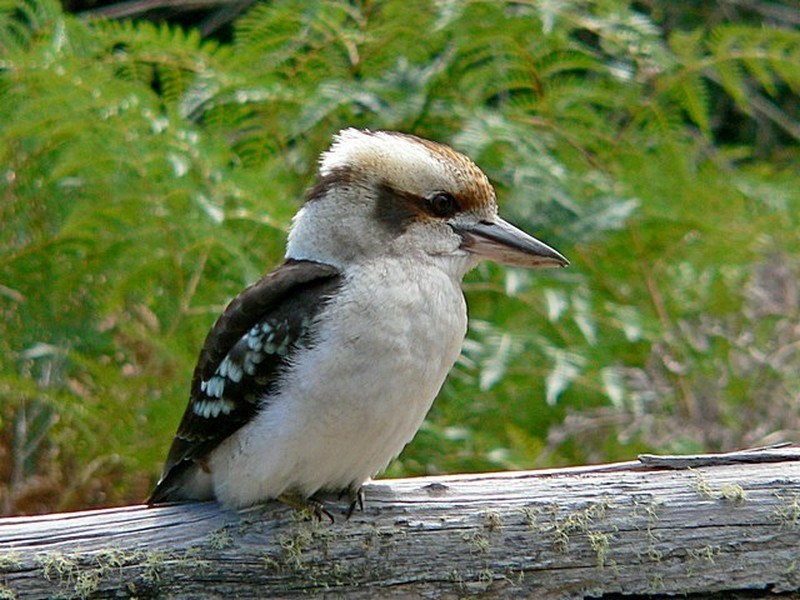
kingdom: Animalia
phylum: Chordata
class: Aves
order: Coraciiformes
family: Alcedinidae
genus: Dacelo
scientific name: Dacelo novaeguineae
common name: Laughing kookaburra
